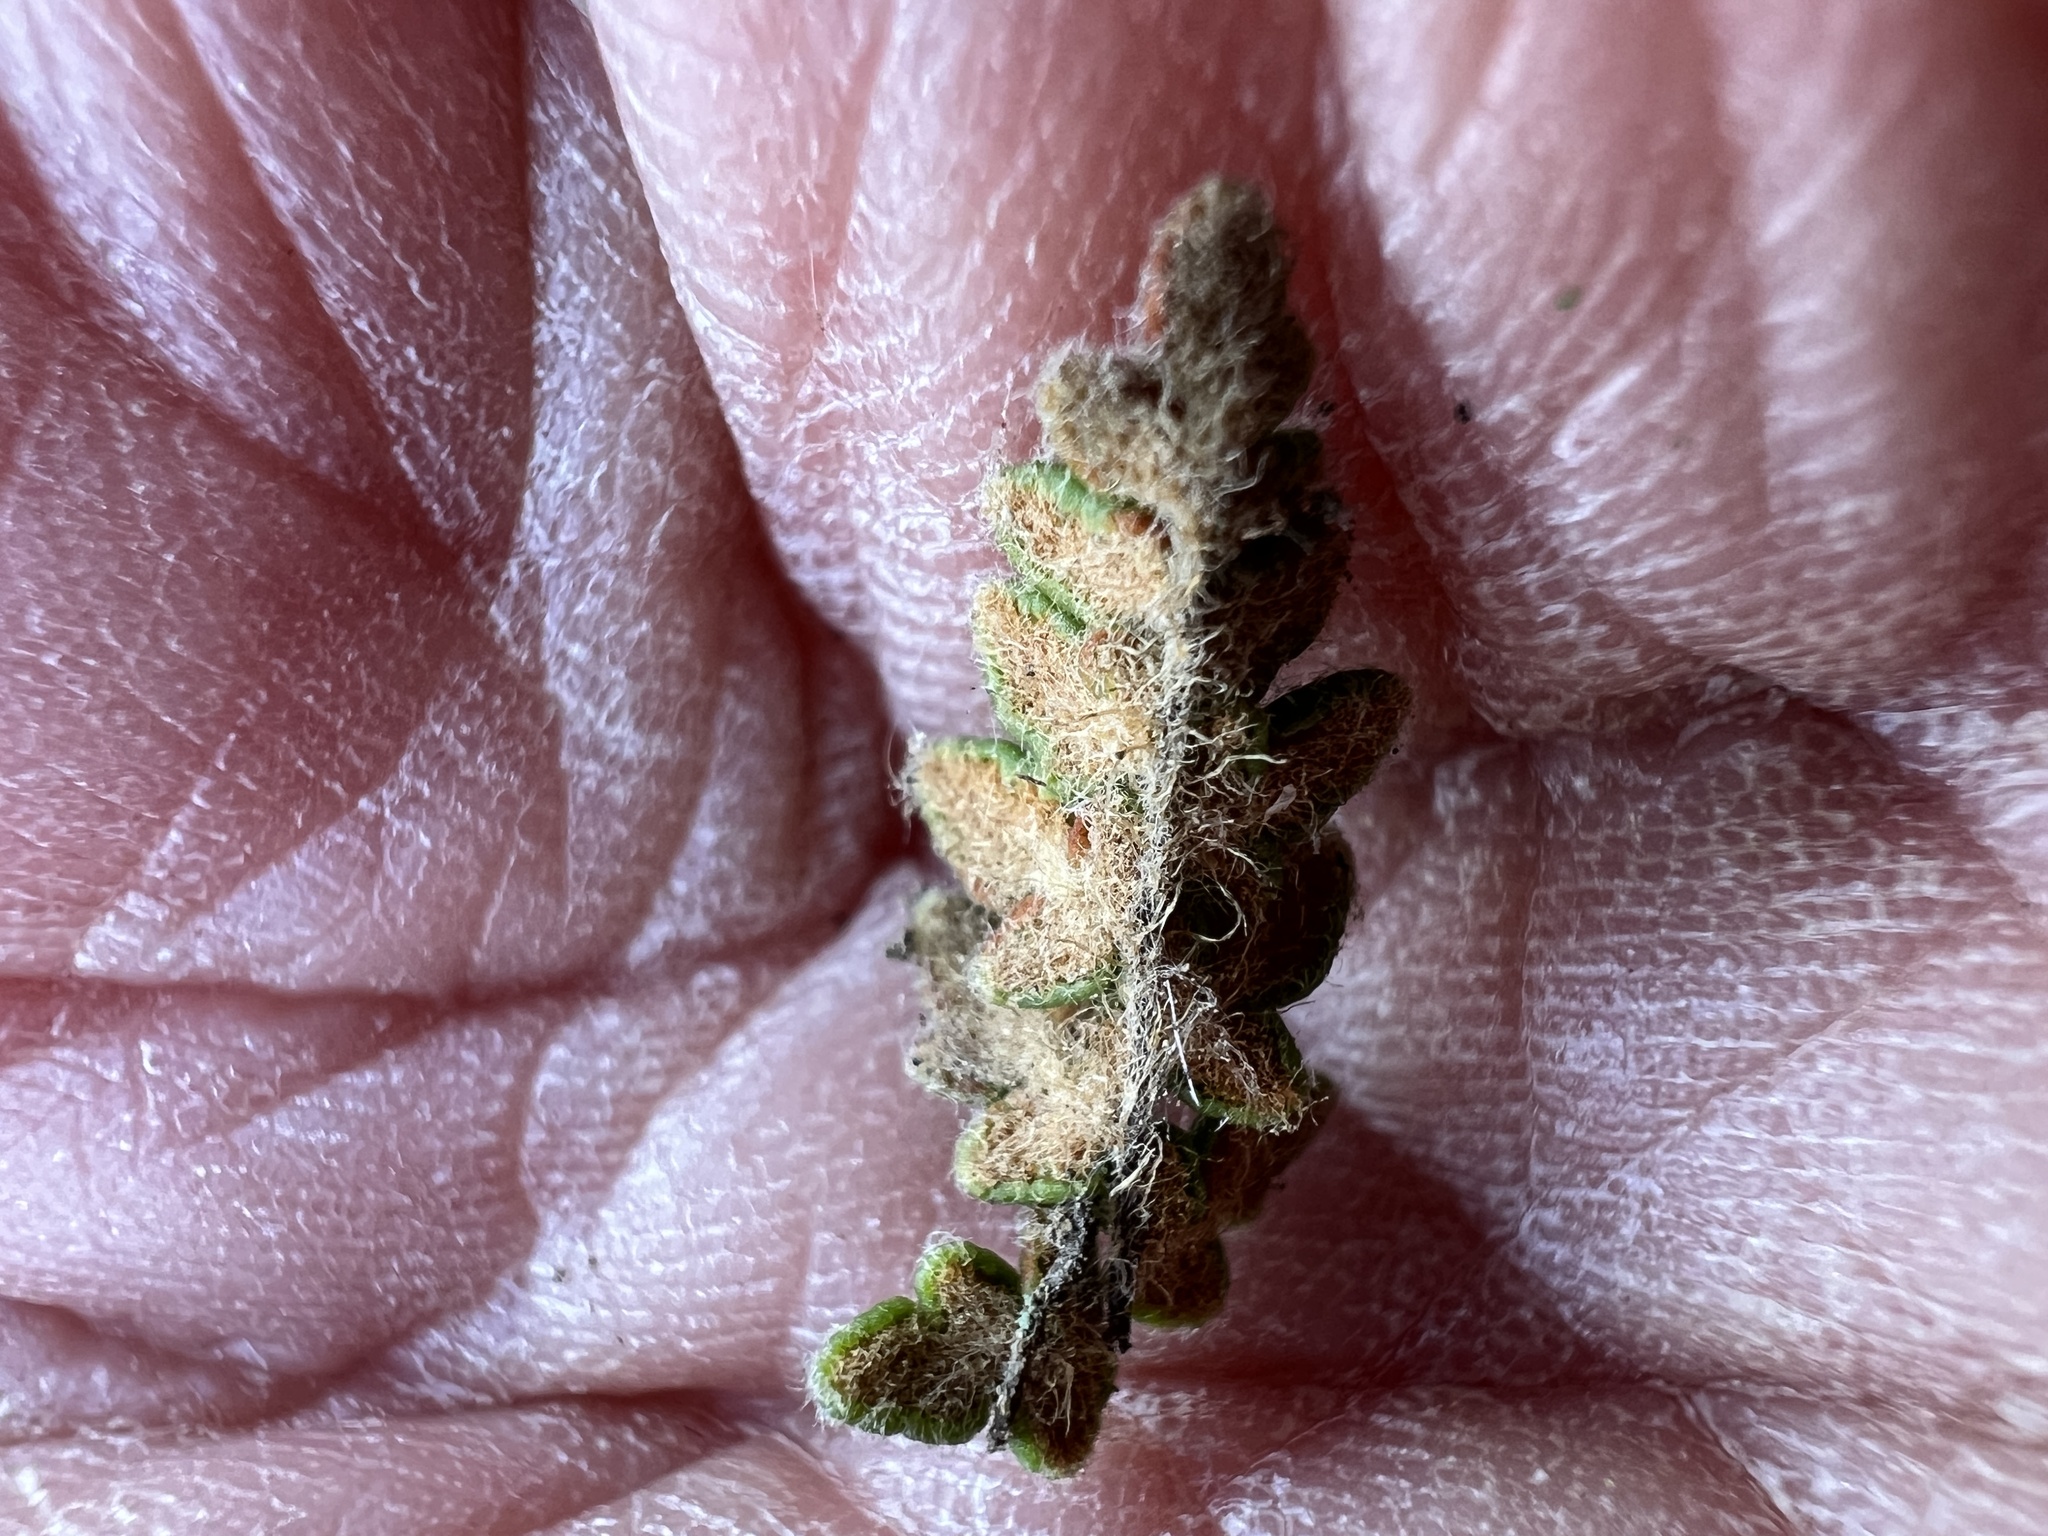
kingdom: Plantae
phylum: Tracheophyta
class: Polypodiopsida
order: Polypodiales
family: Pteridaceae
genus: Myriopteris
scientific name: Myriopteris gracillima
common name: Lace fern
